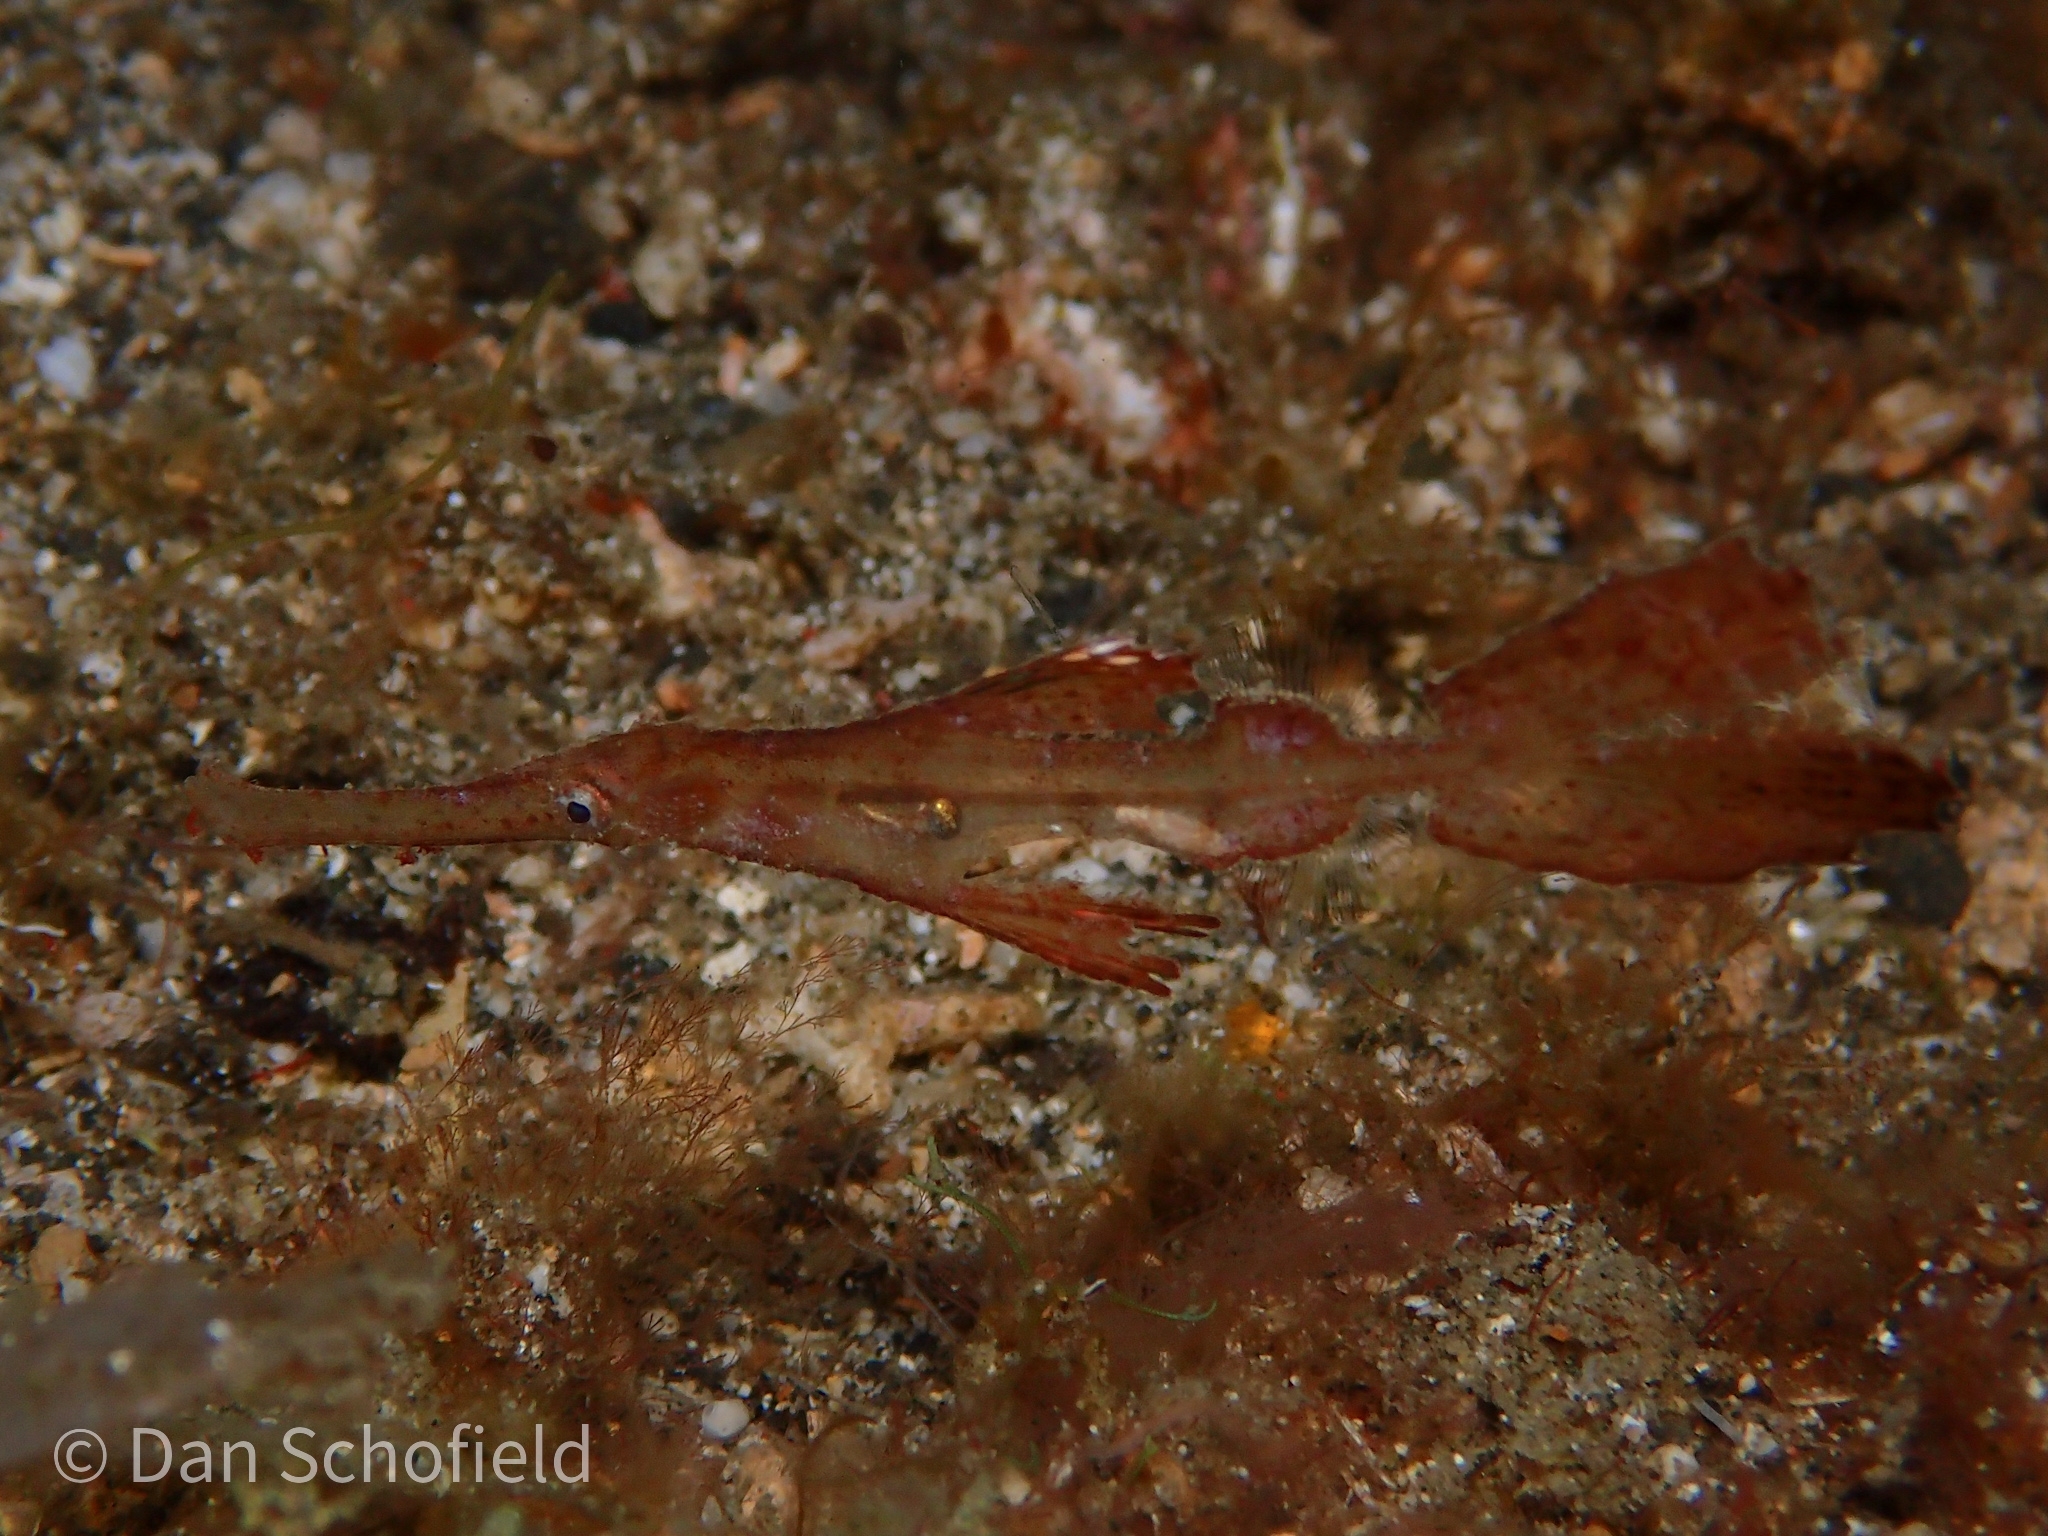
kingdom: Animalia
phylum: Chordata
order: Syngnathiformes
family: Solenostomidae
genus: Solenostomus
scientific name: Solenostomus cyanopterus
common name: Blue-finned ghost pipefish
